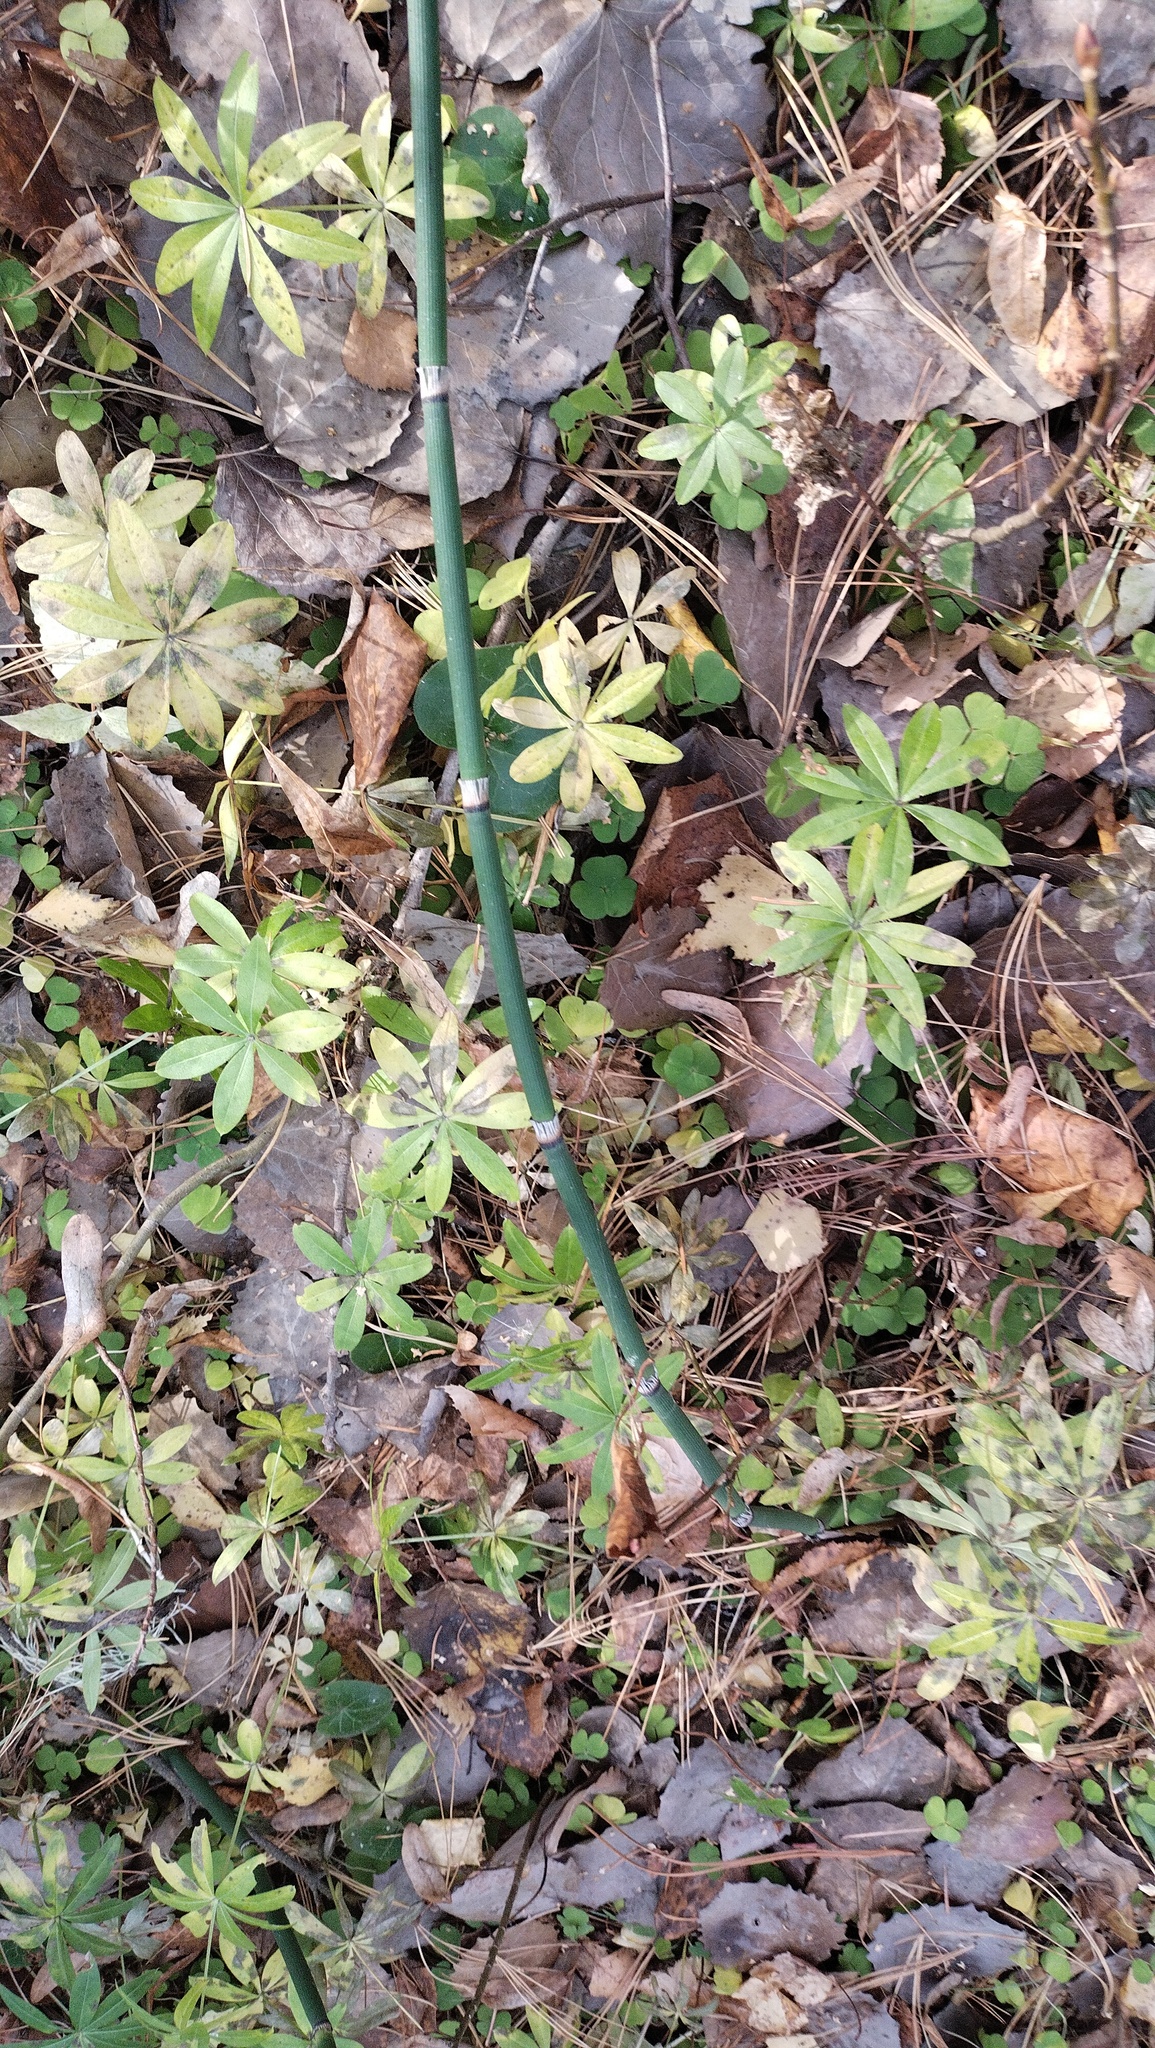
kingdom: Plantae
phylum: Tracheophyta
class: Magnoliopsida
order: Gentianales
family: Rubiaceae
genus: Galium
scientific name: Galium odoratum
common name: Sweet woodruff
